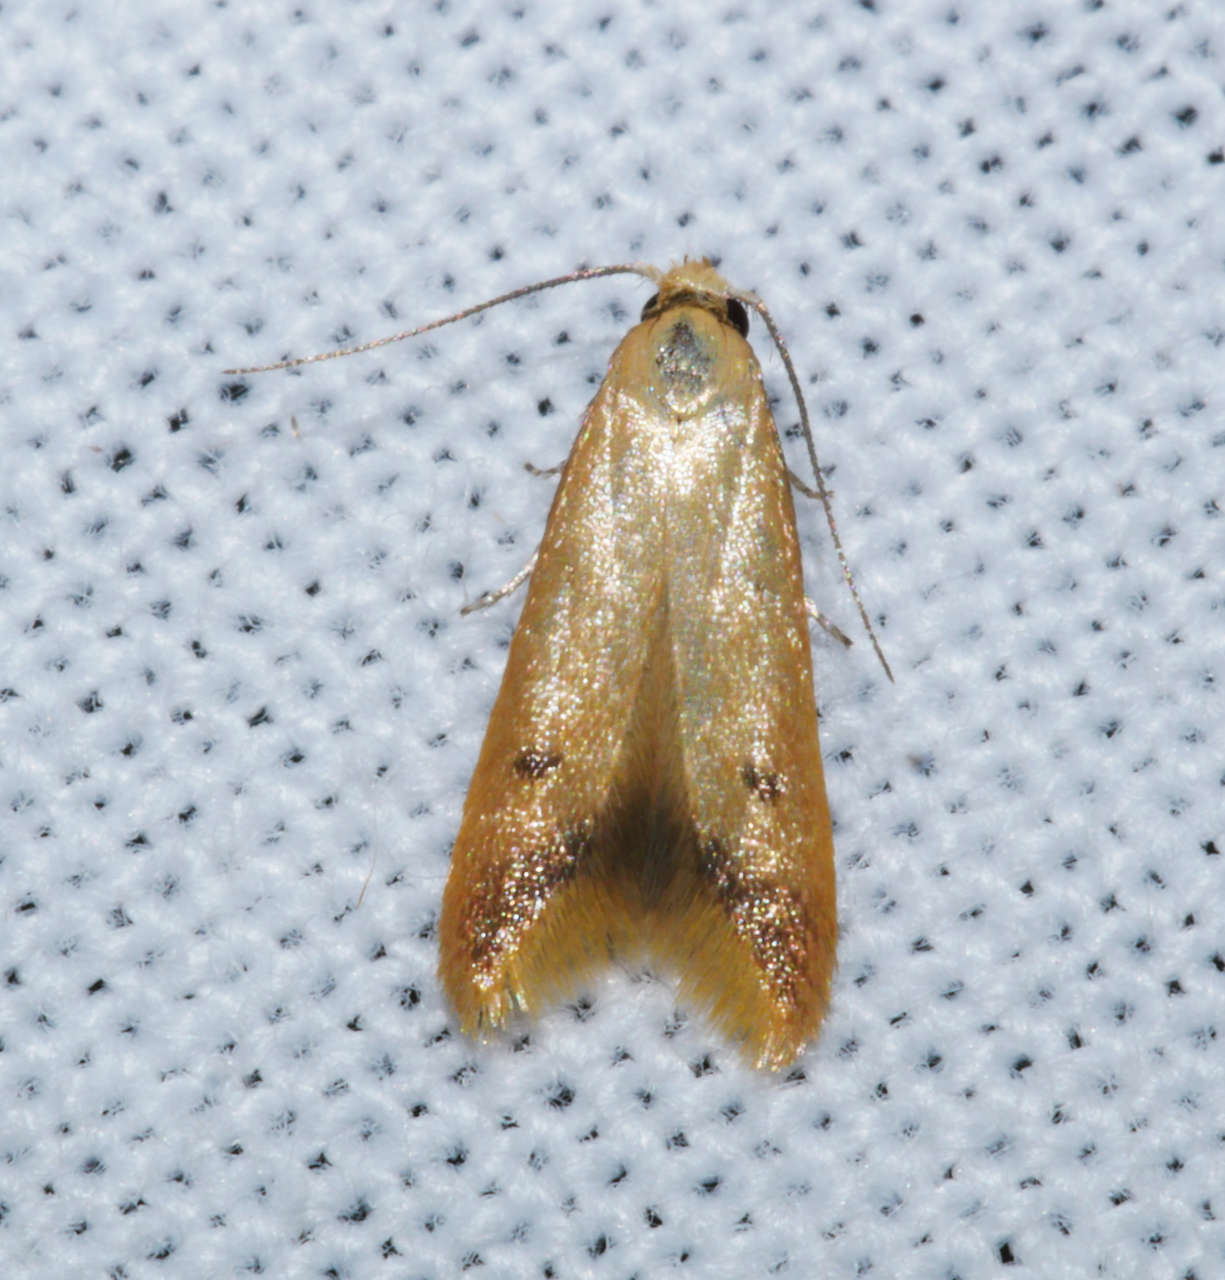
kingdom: Animalia
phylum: Arthropoda
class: Insecta
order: Lepidoptera
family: Oecophoridae
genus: Tachystola
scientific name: Tachystola oxytora
